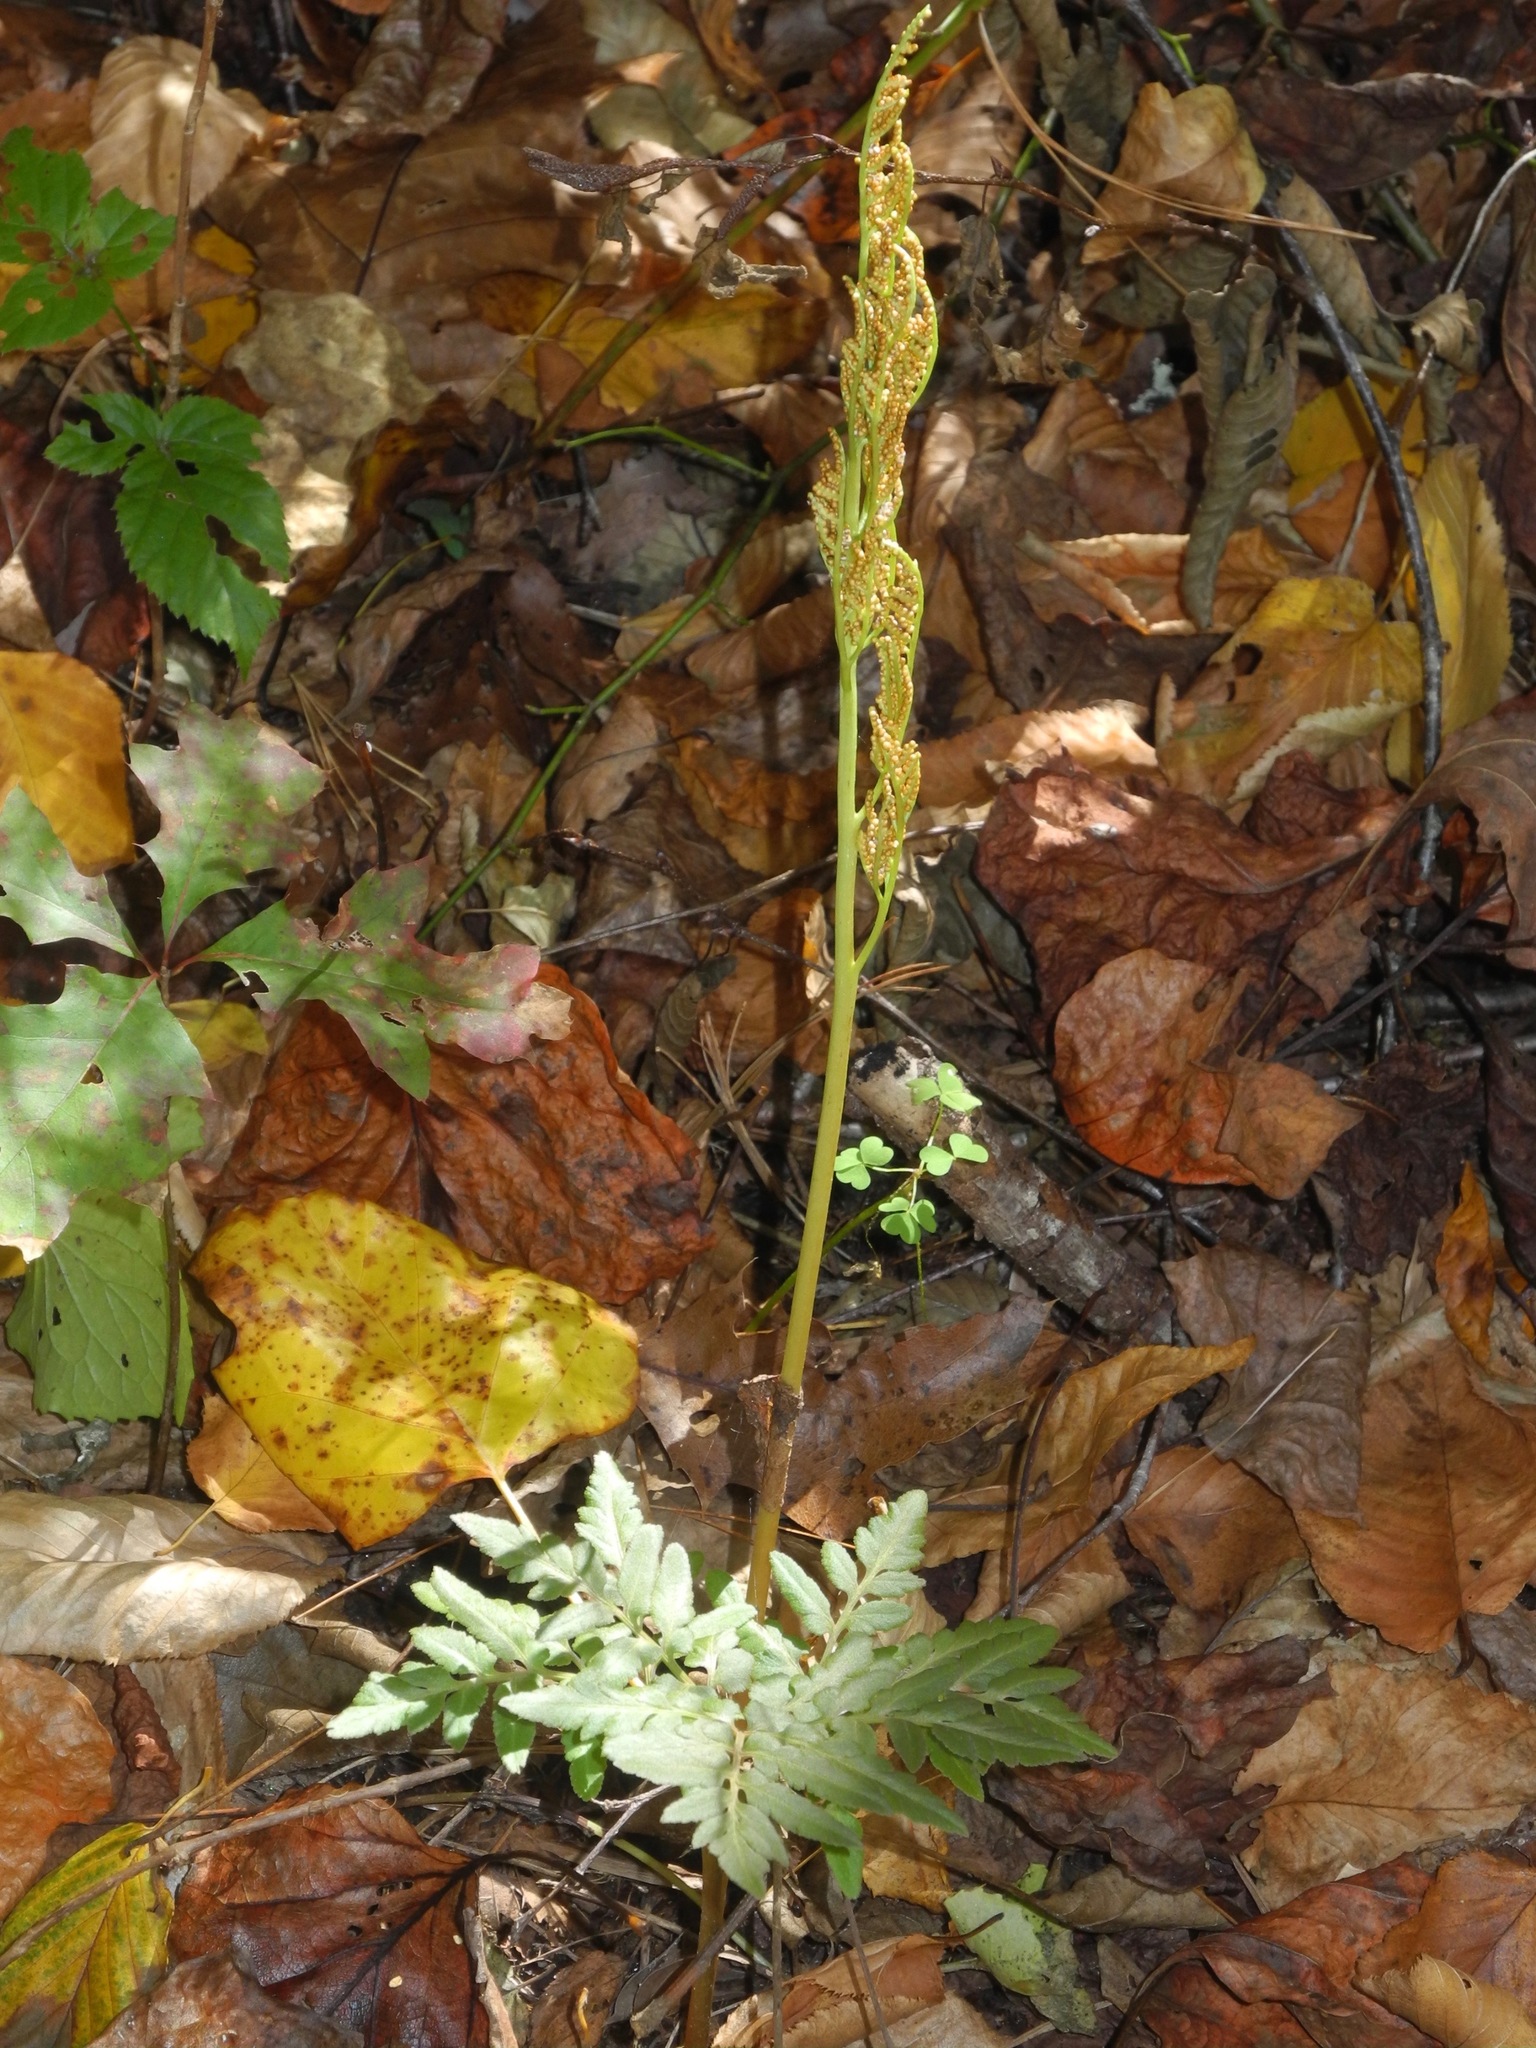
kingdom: Plantae
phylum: Tracheophyta
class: Polypodiopsida
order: Ophioglossales
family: Ophioglossaceae
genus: Sceptridium
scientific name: Sceptridium dissectum
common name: Cut-leaved grapefern
